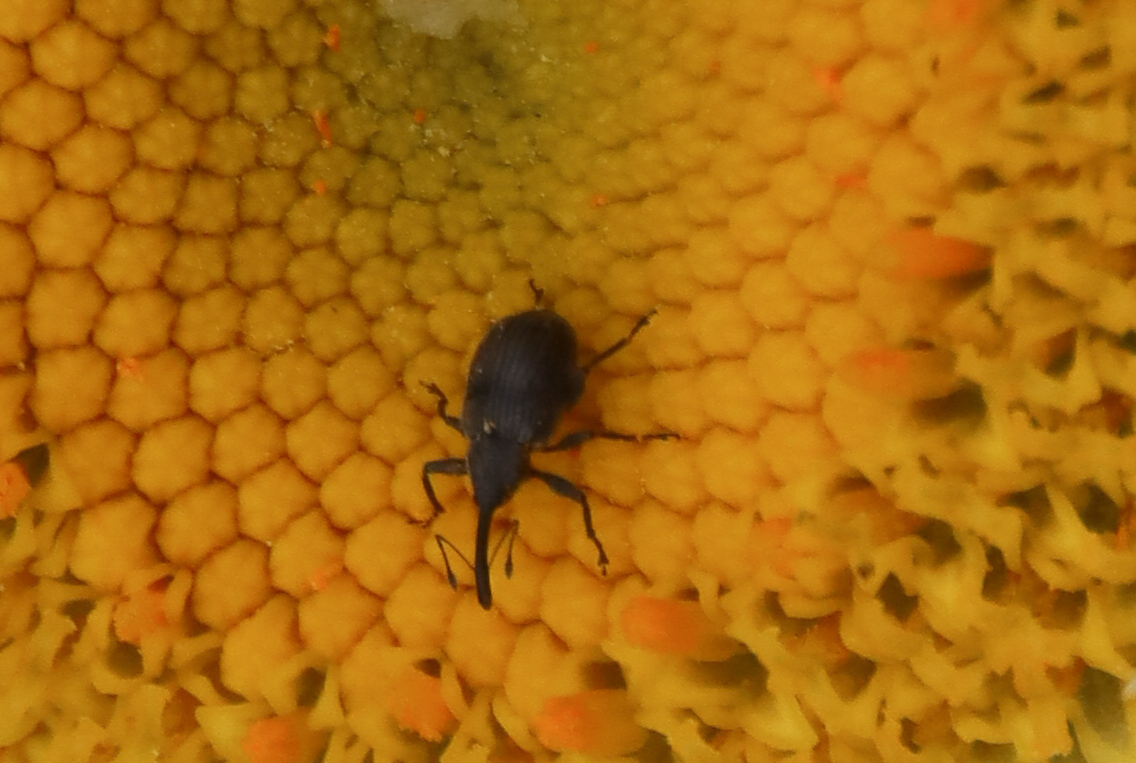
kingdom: Animalia
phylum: Arthropoda
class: Insecta
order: Coleoptera
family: Curculionidae
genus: Anthonomus
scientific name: Anthonomus rubi
